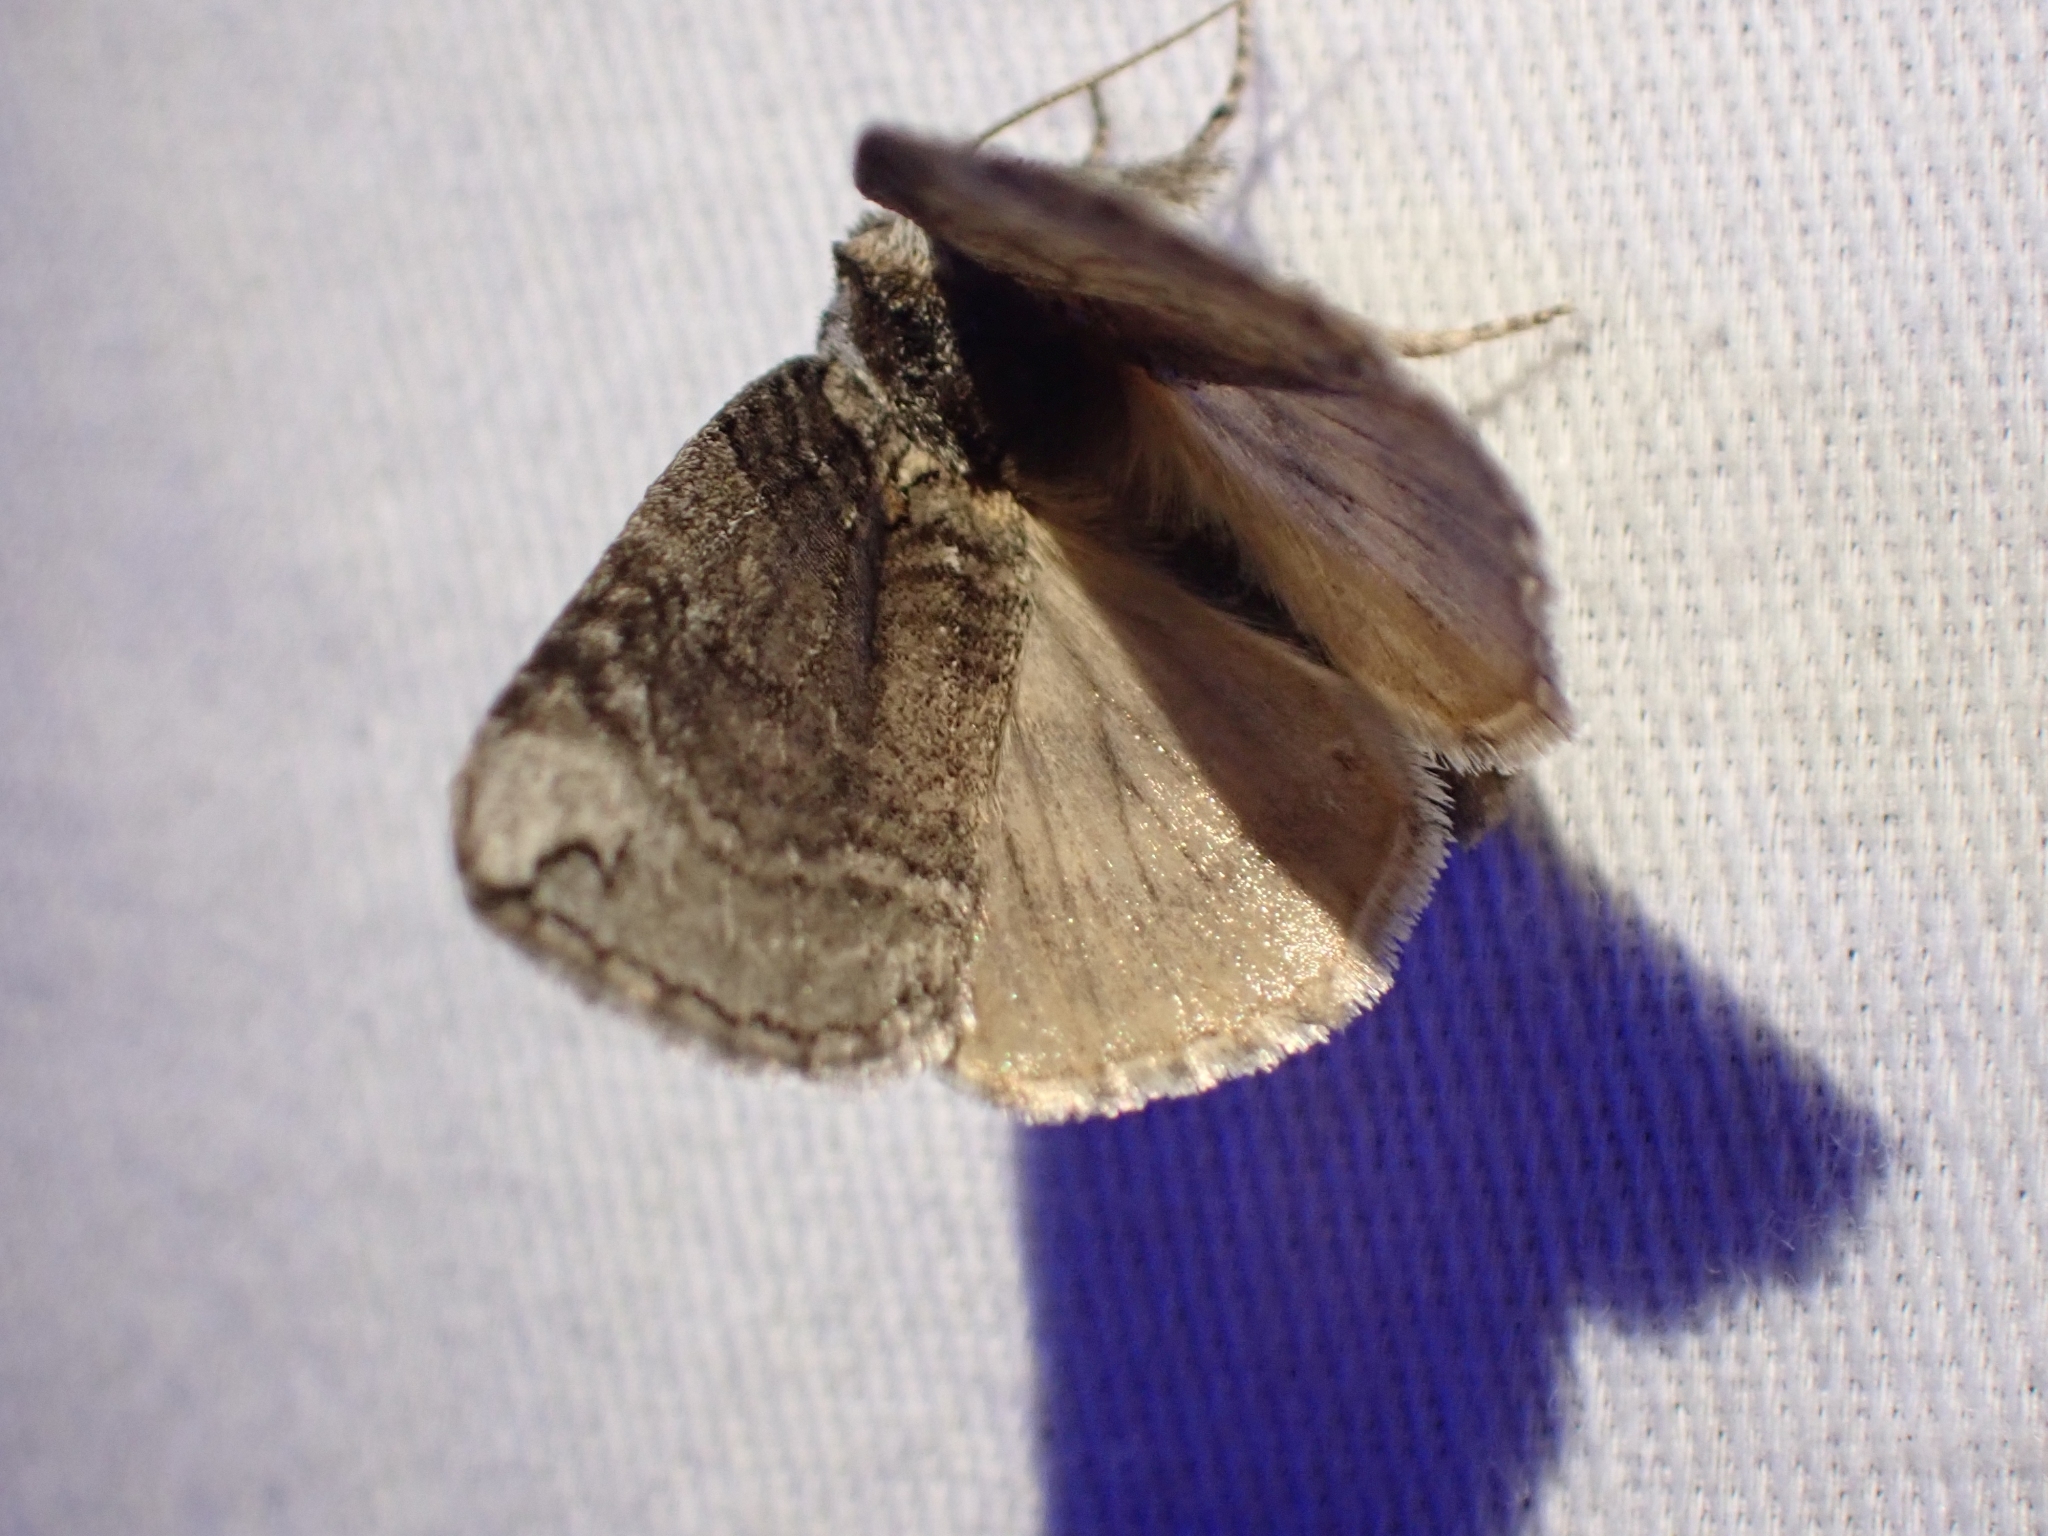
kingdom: Animalia
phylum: Arthropoda
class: Insecta
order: Lepidoptera
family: Drepanidae
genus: Euthyatira
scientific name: Euthyatira semicircularis
